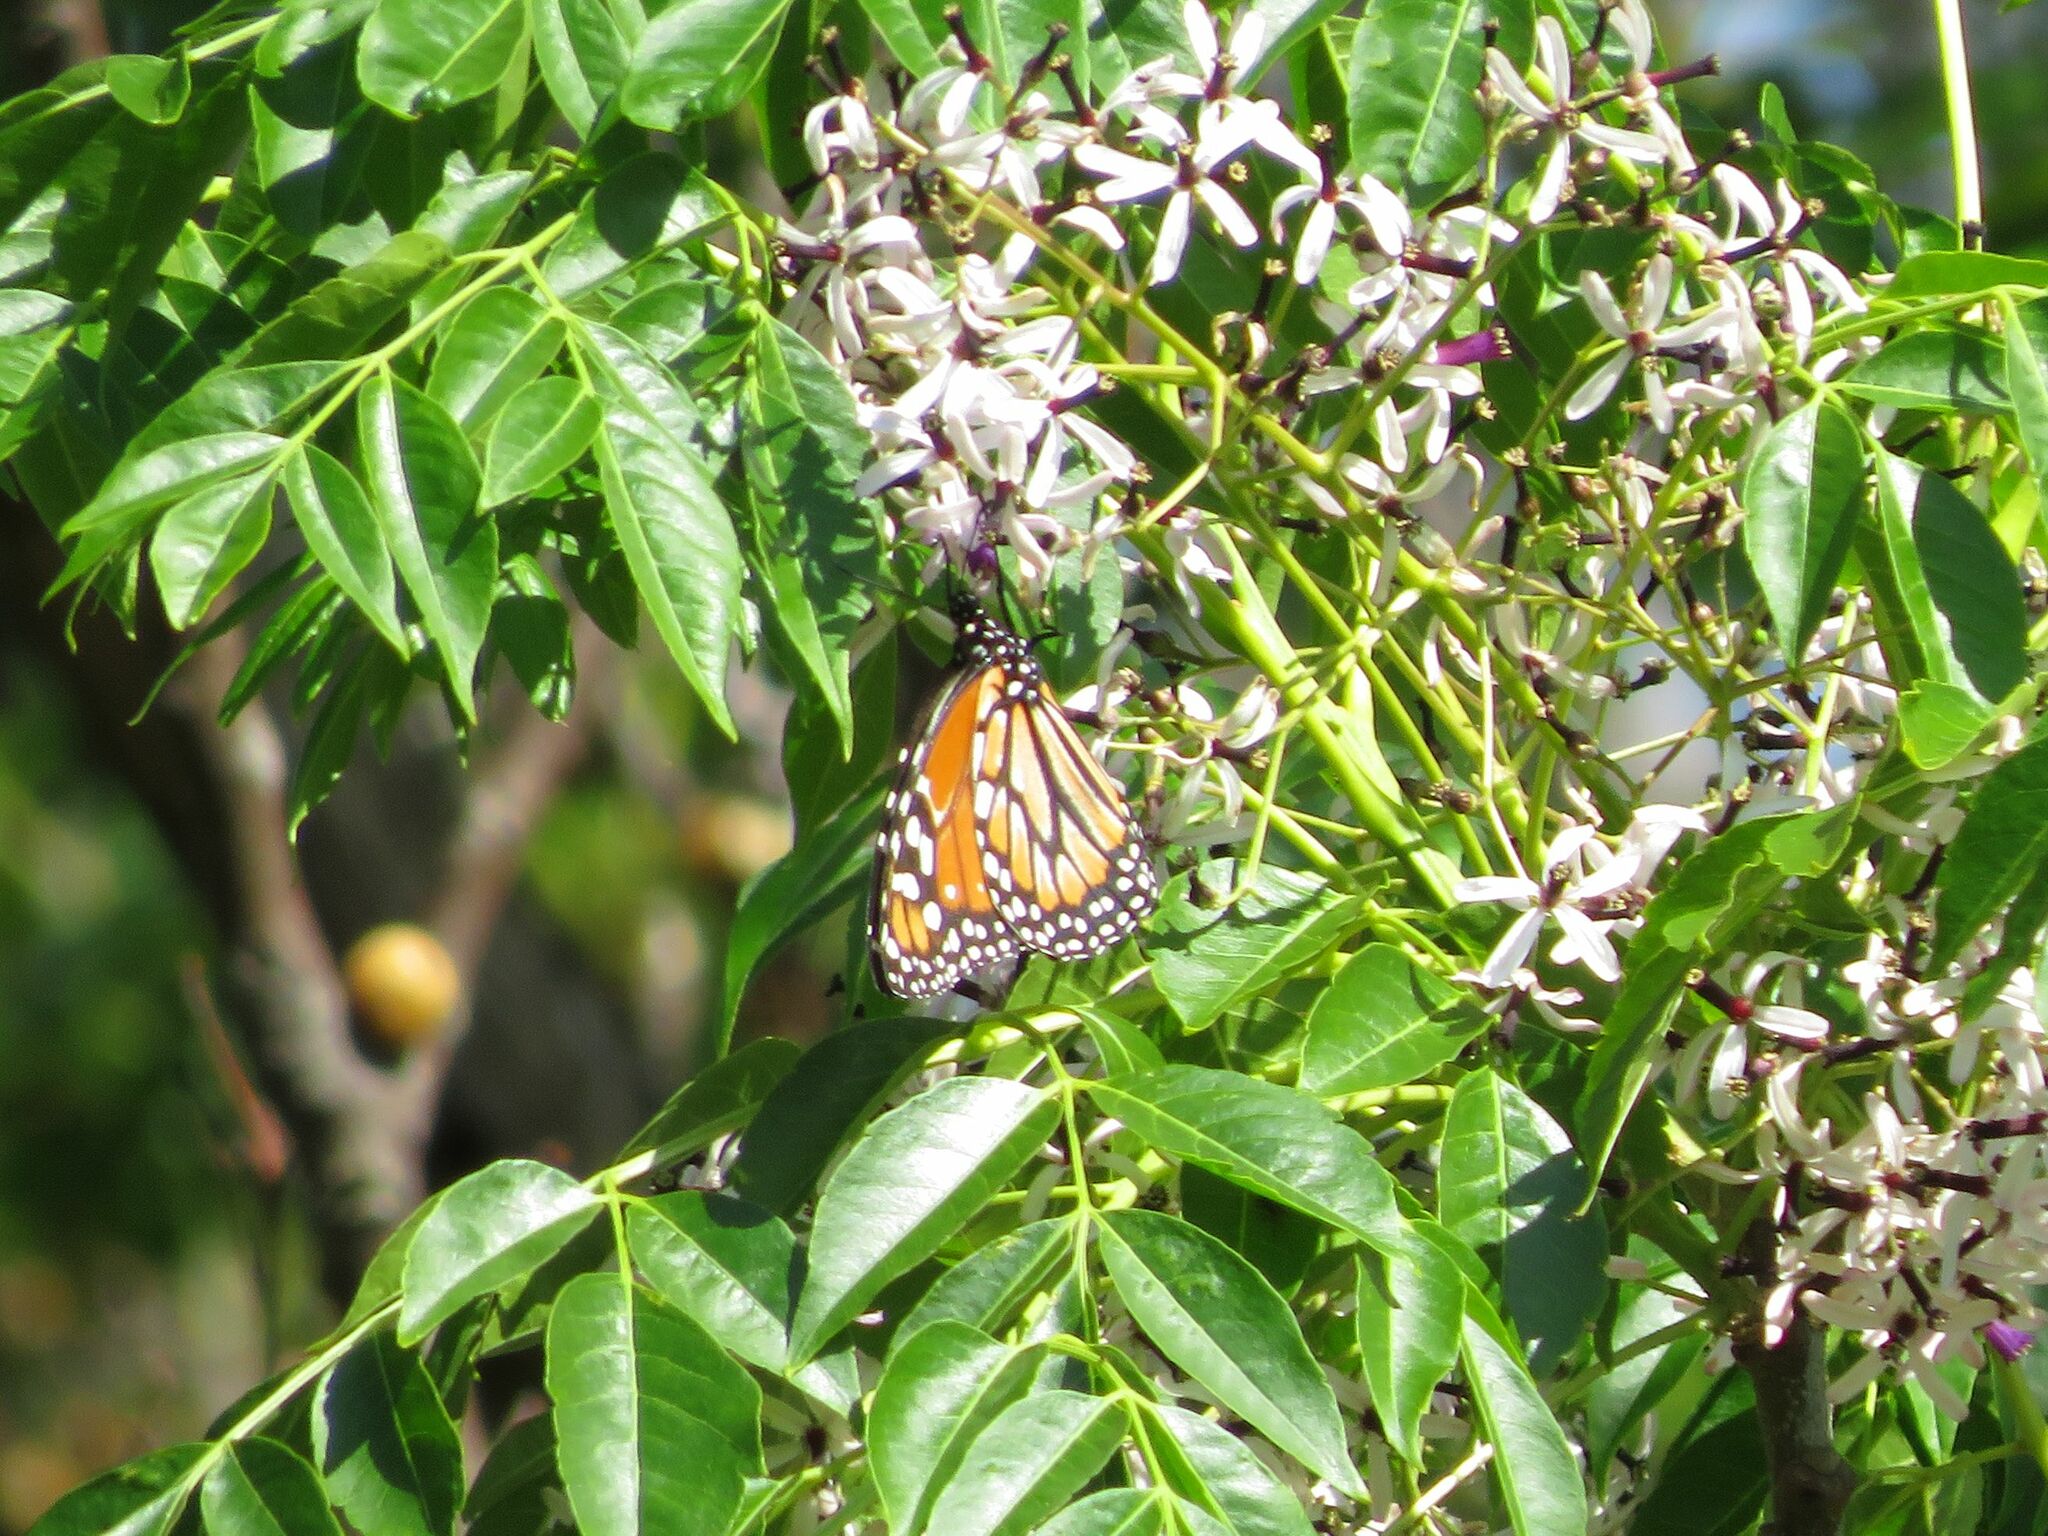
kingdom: Animalia
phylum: Arthropoda
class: Insecta
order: Lepidoptera
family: Nymphalidae
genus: Danaus
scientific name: Danaus erippus
